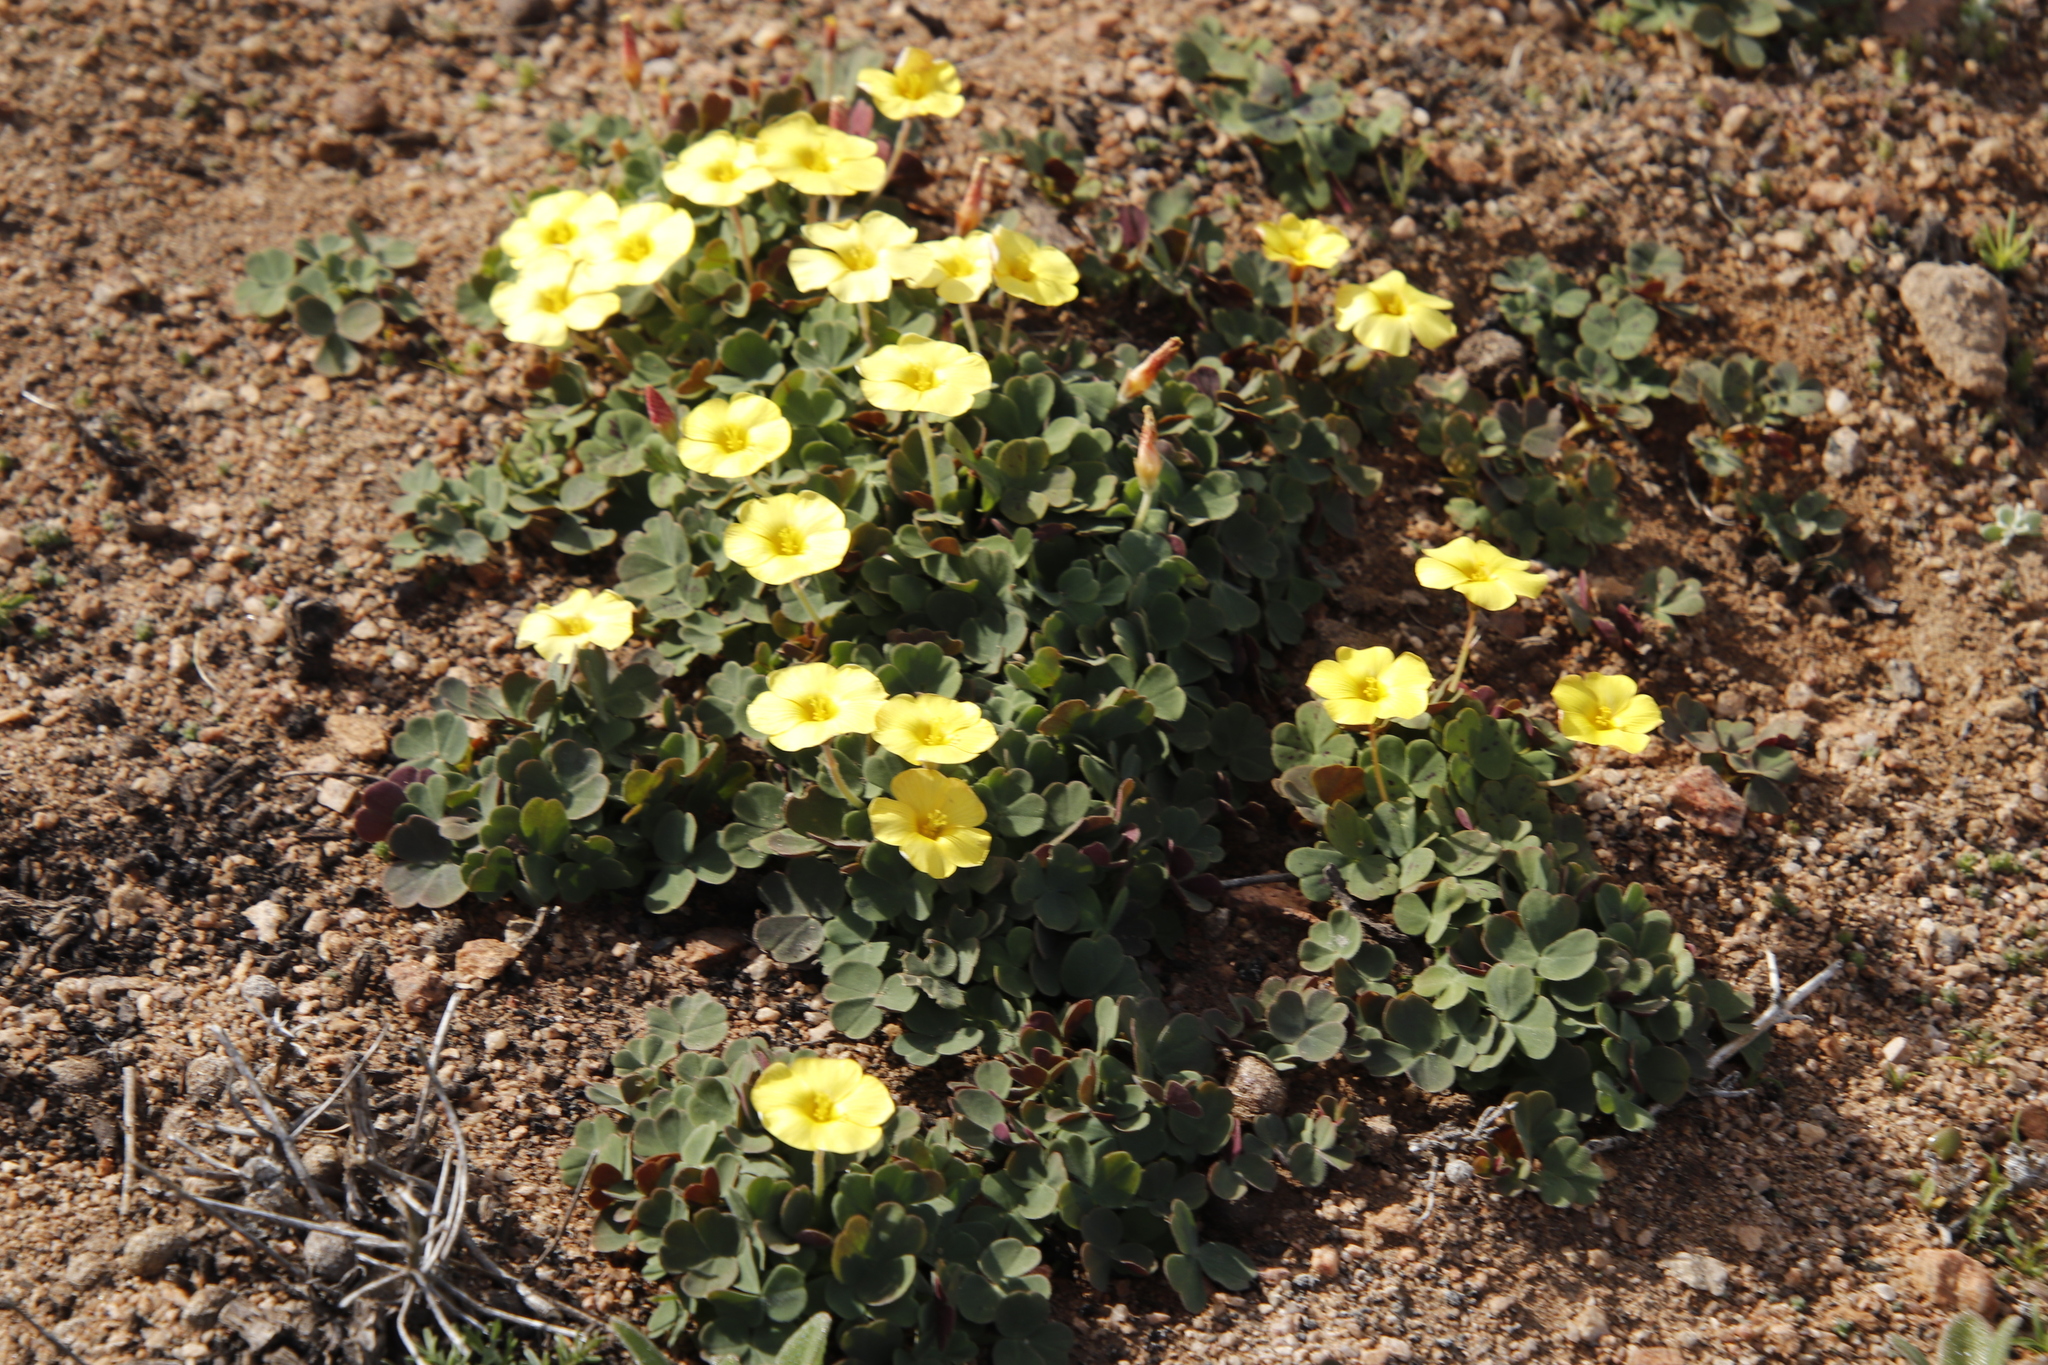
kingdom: Plantae
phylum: Tracheophyta
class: Magnoliopsida
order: Oxalidales
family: Oxalidaceae
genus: Oxalis
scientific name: Oxalis obtusa
